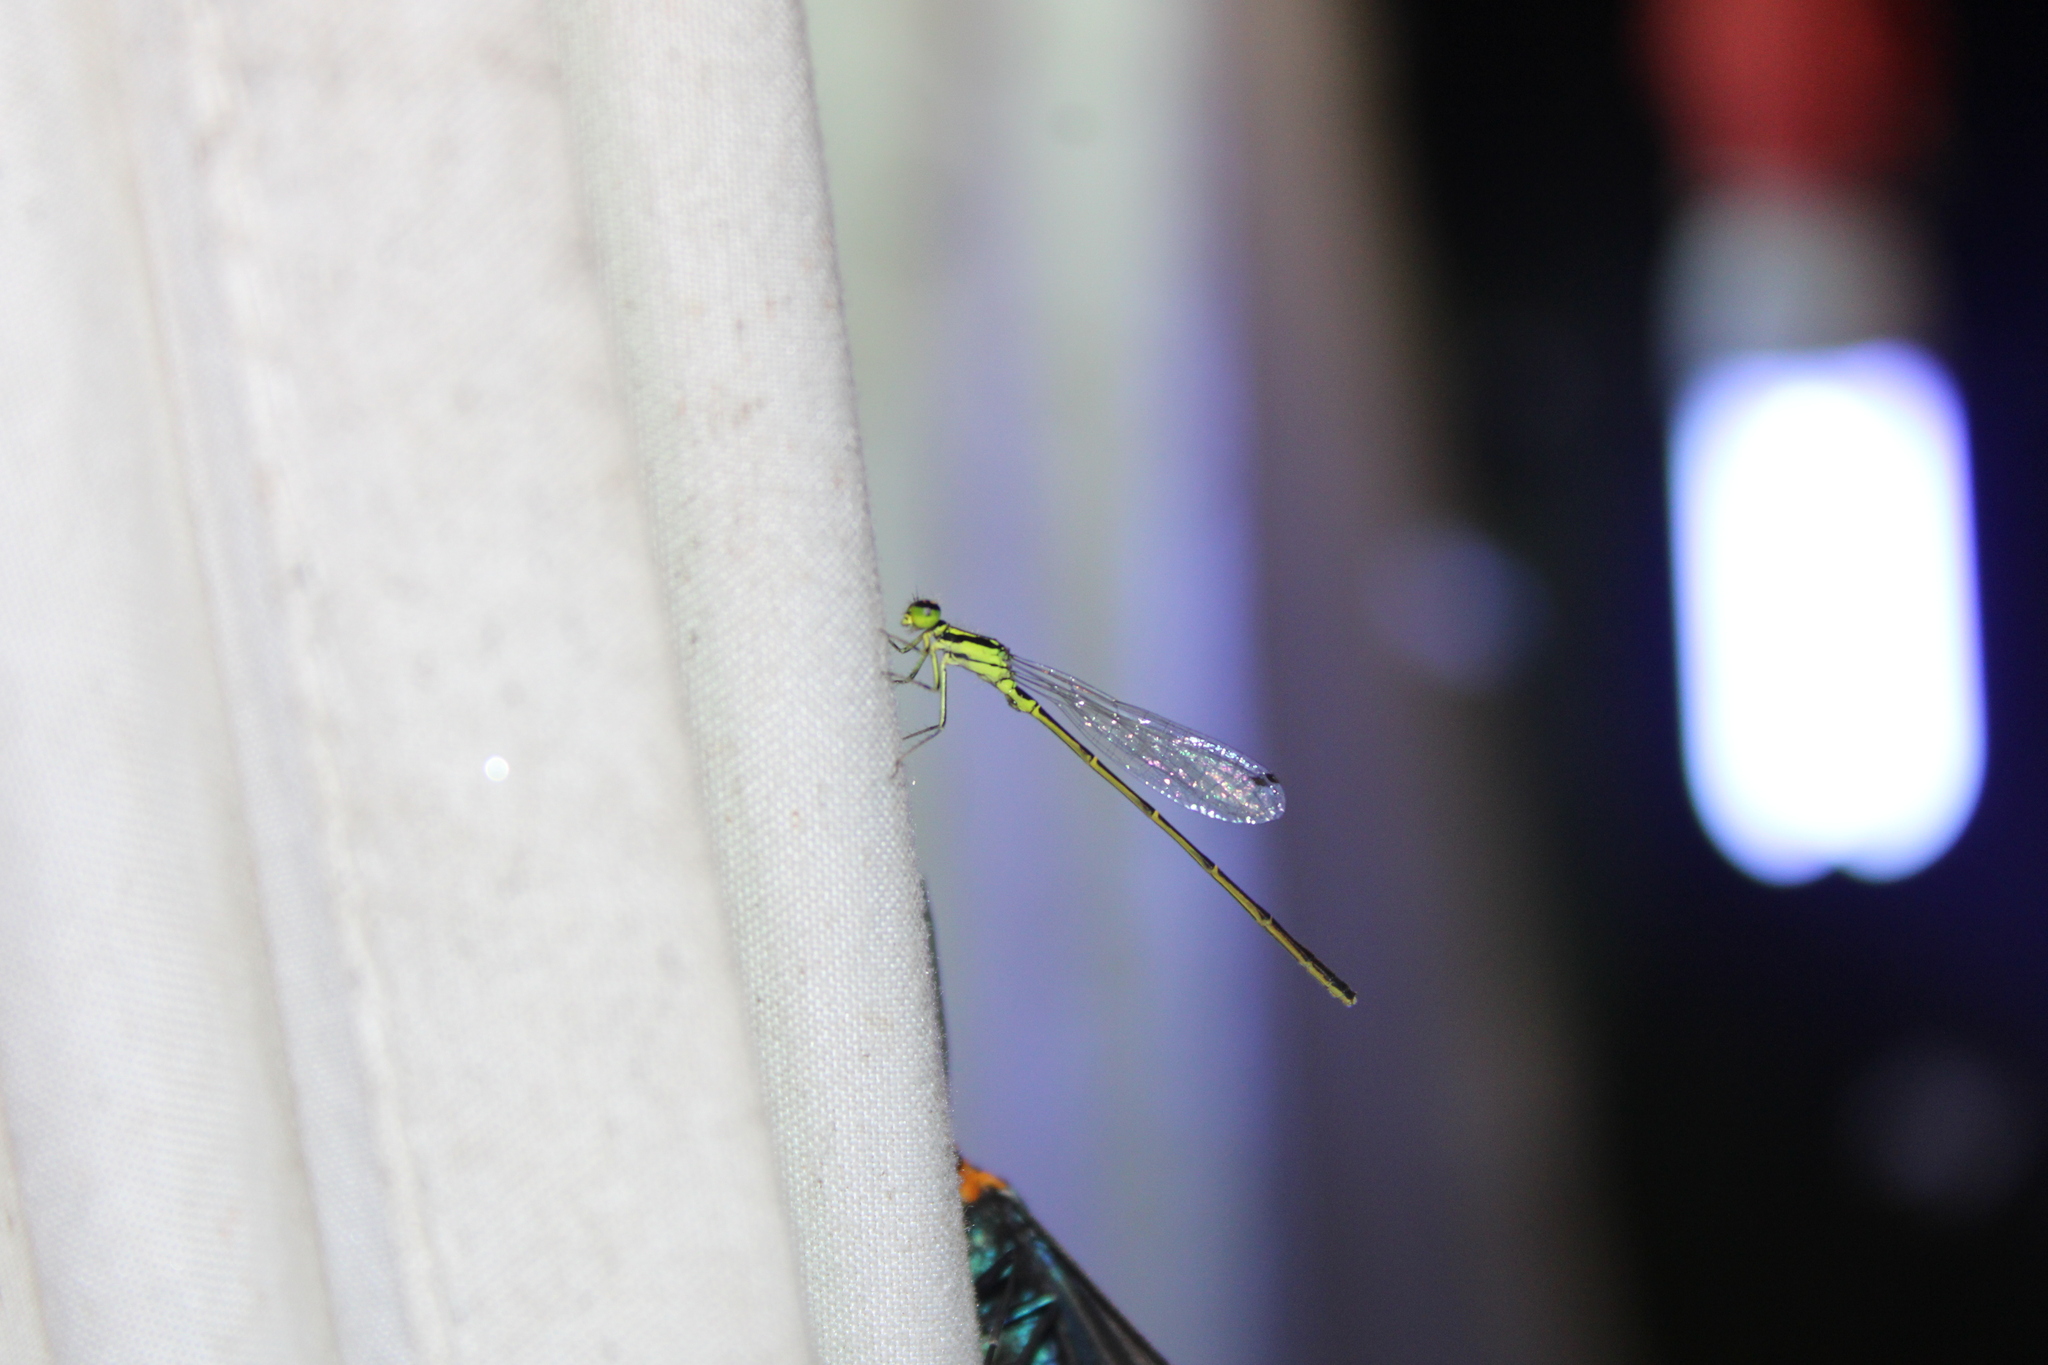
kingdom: Animalia
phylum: Arthropoda
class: Insecta
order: Odonata
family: Coenagrionidae
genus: Ischnura
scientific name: Ischnura posita
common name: Fragile forktail
